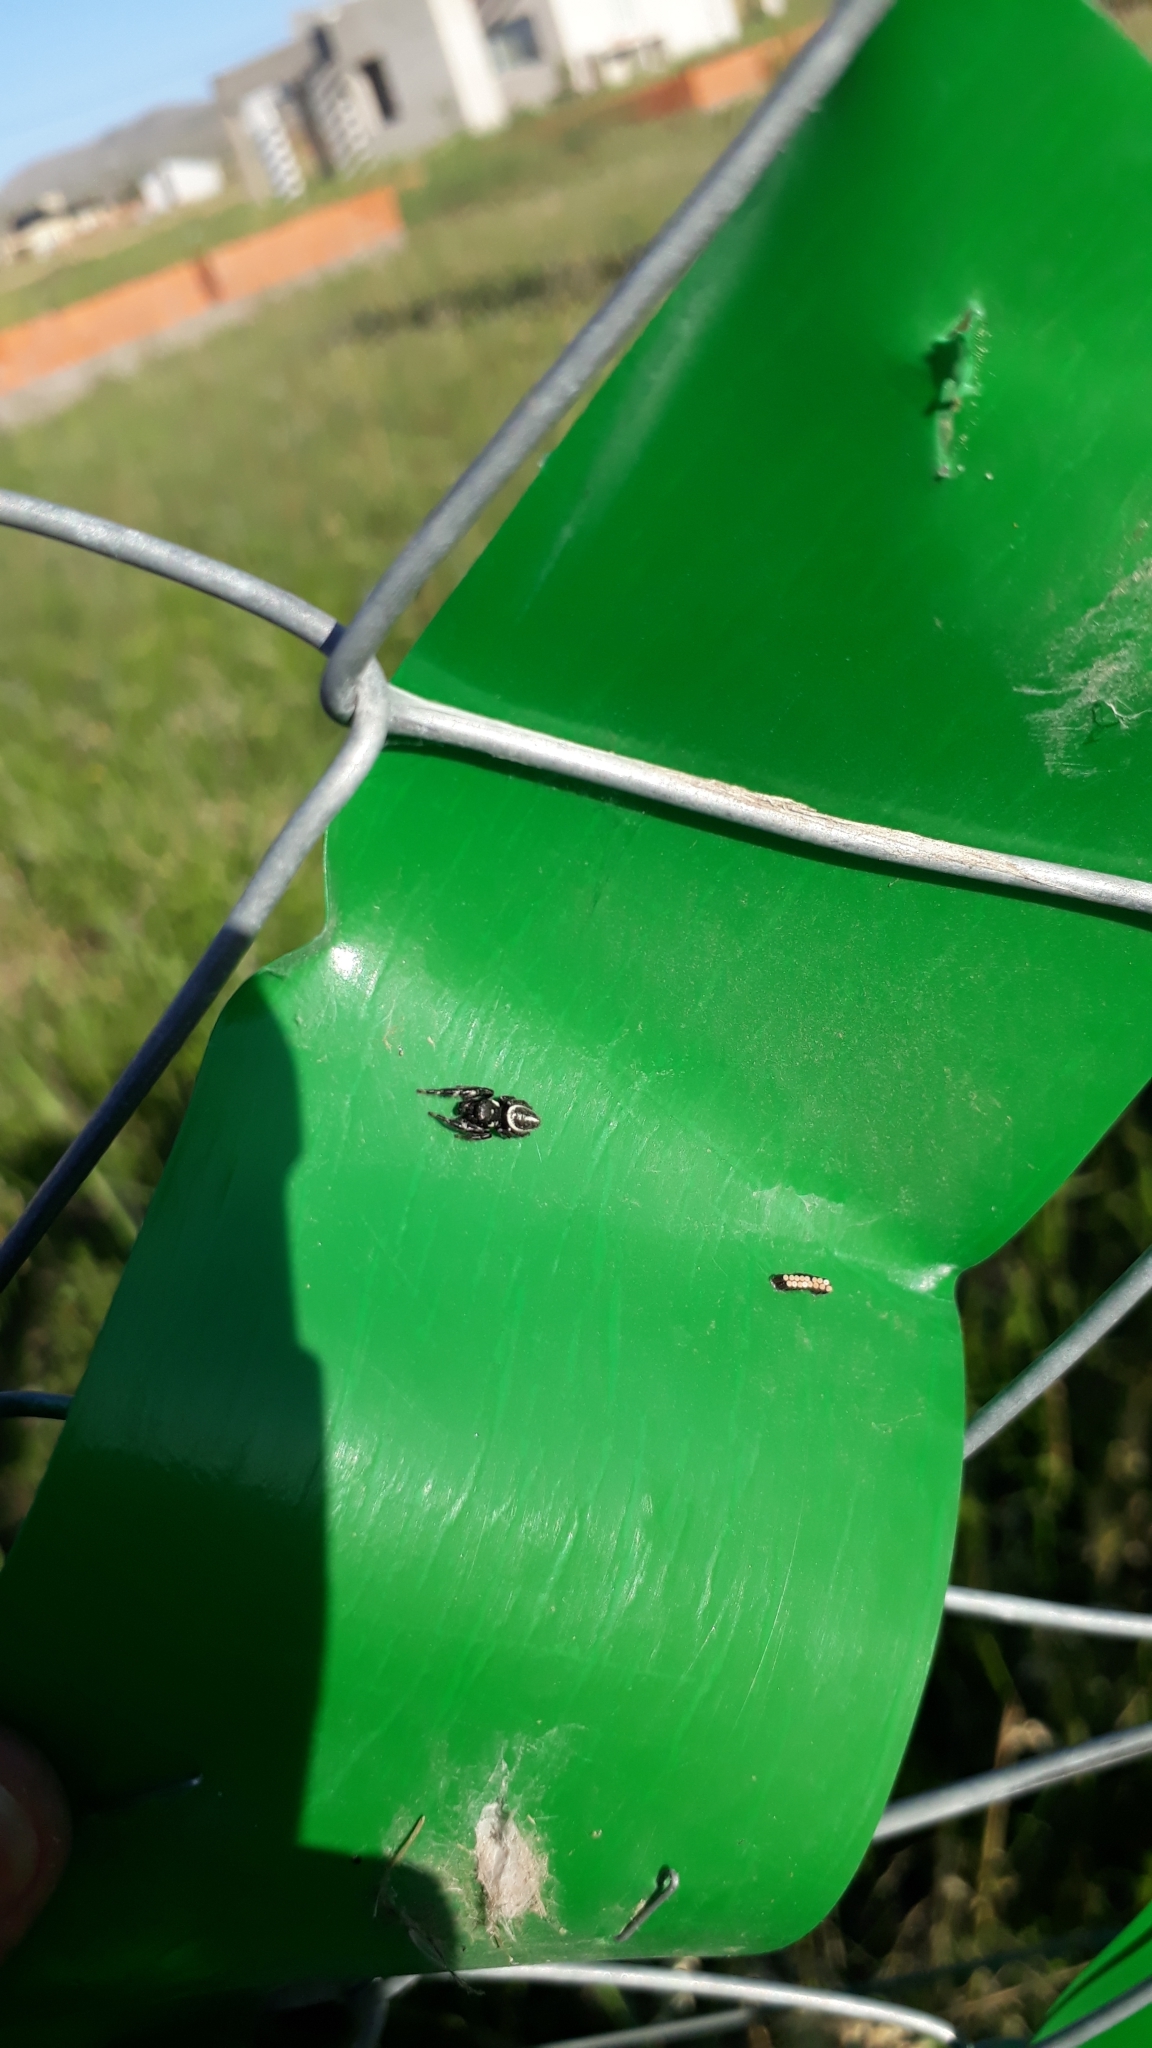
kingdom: Animalia
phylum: Arthropoda
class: Arachnida
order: Araneae
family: Salticidae
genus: Dendryphantes
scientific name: Dendryphantes mordax
